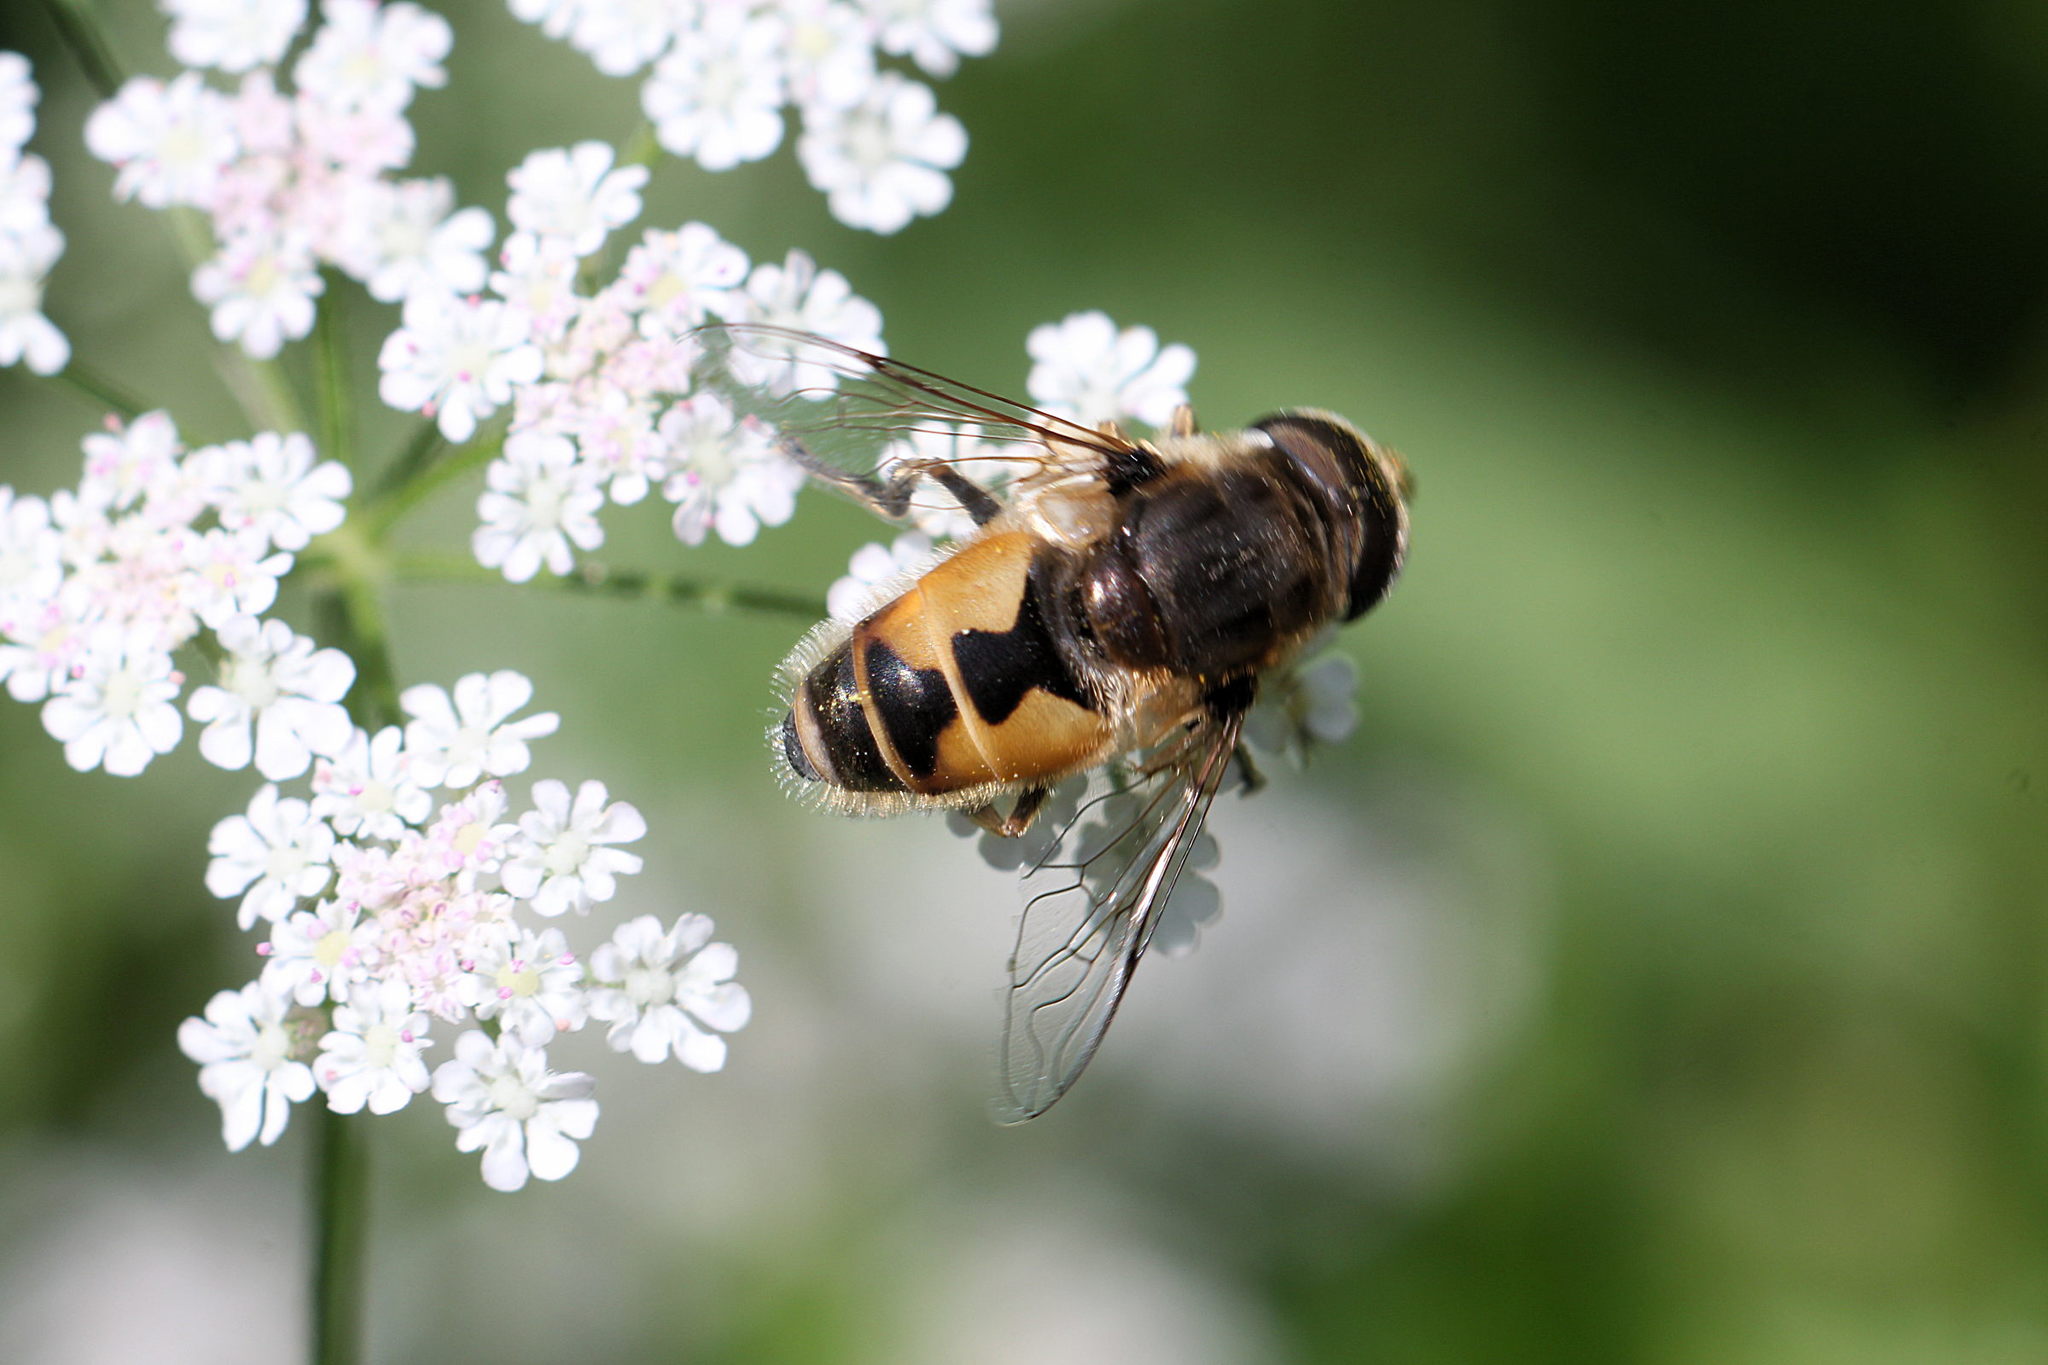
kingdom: Animalia
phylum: Arthropoda
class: Insecta
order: Diptera
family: Syrphidae
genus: Eristalis
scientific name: Eristalis arbustorum
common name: Hover fly
